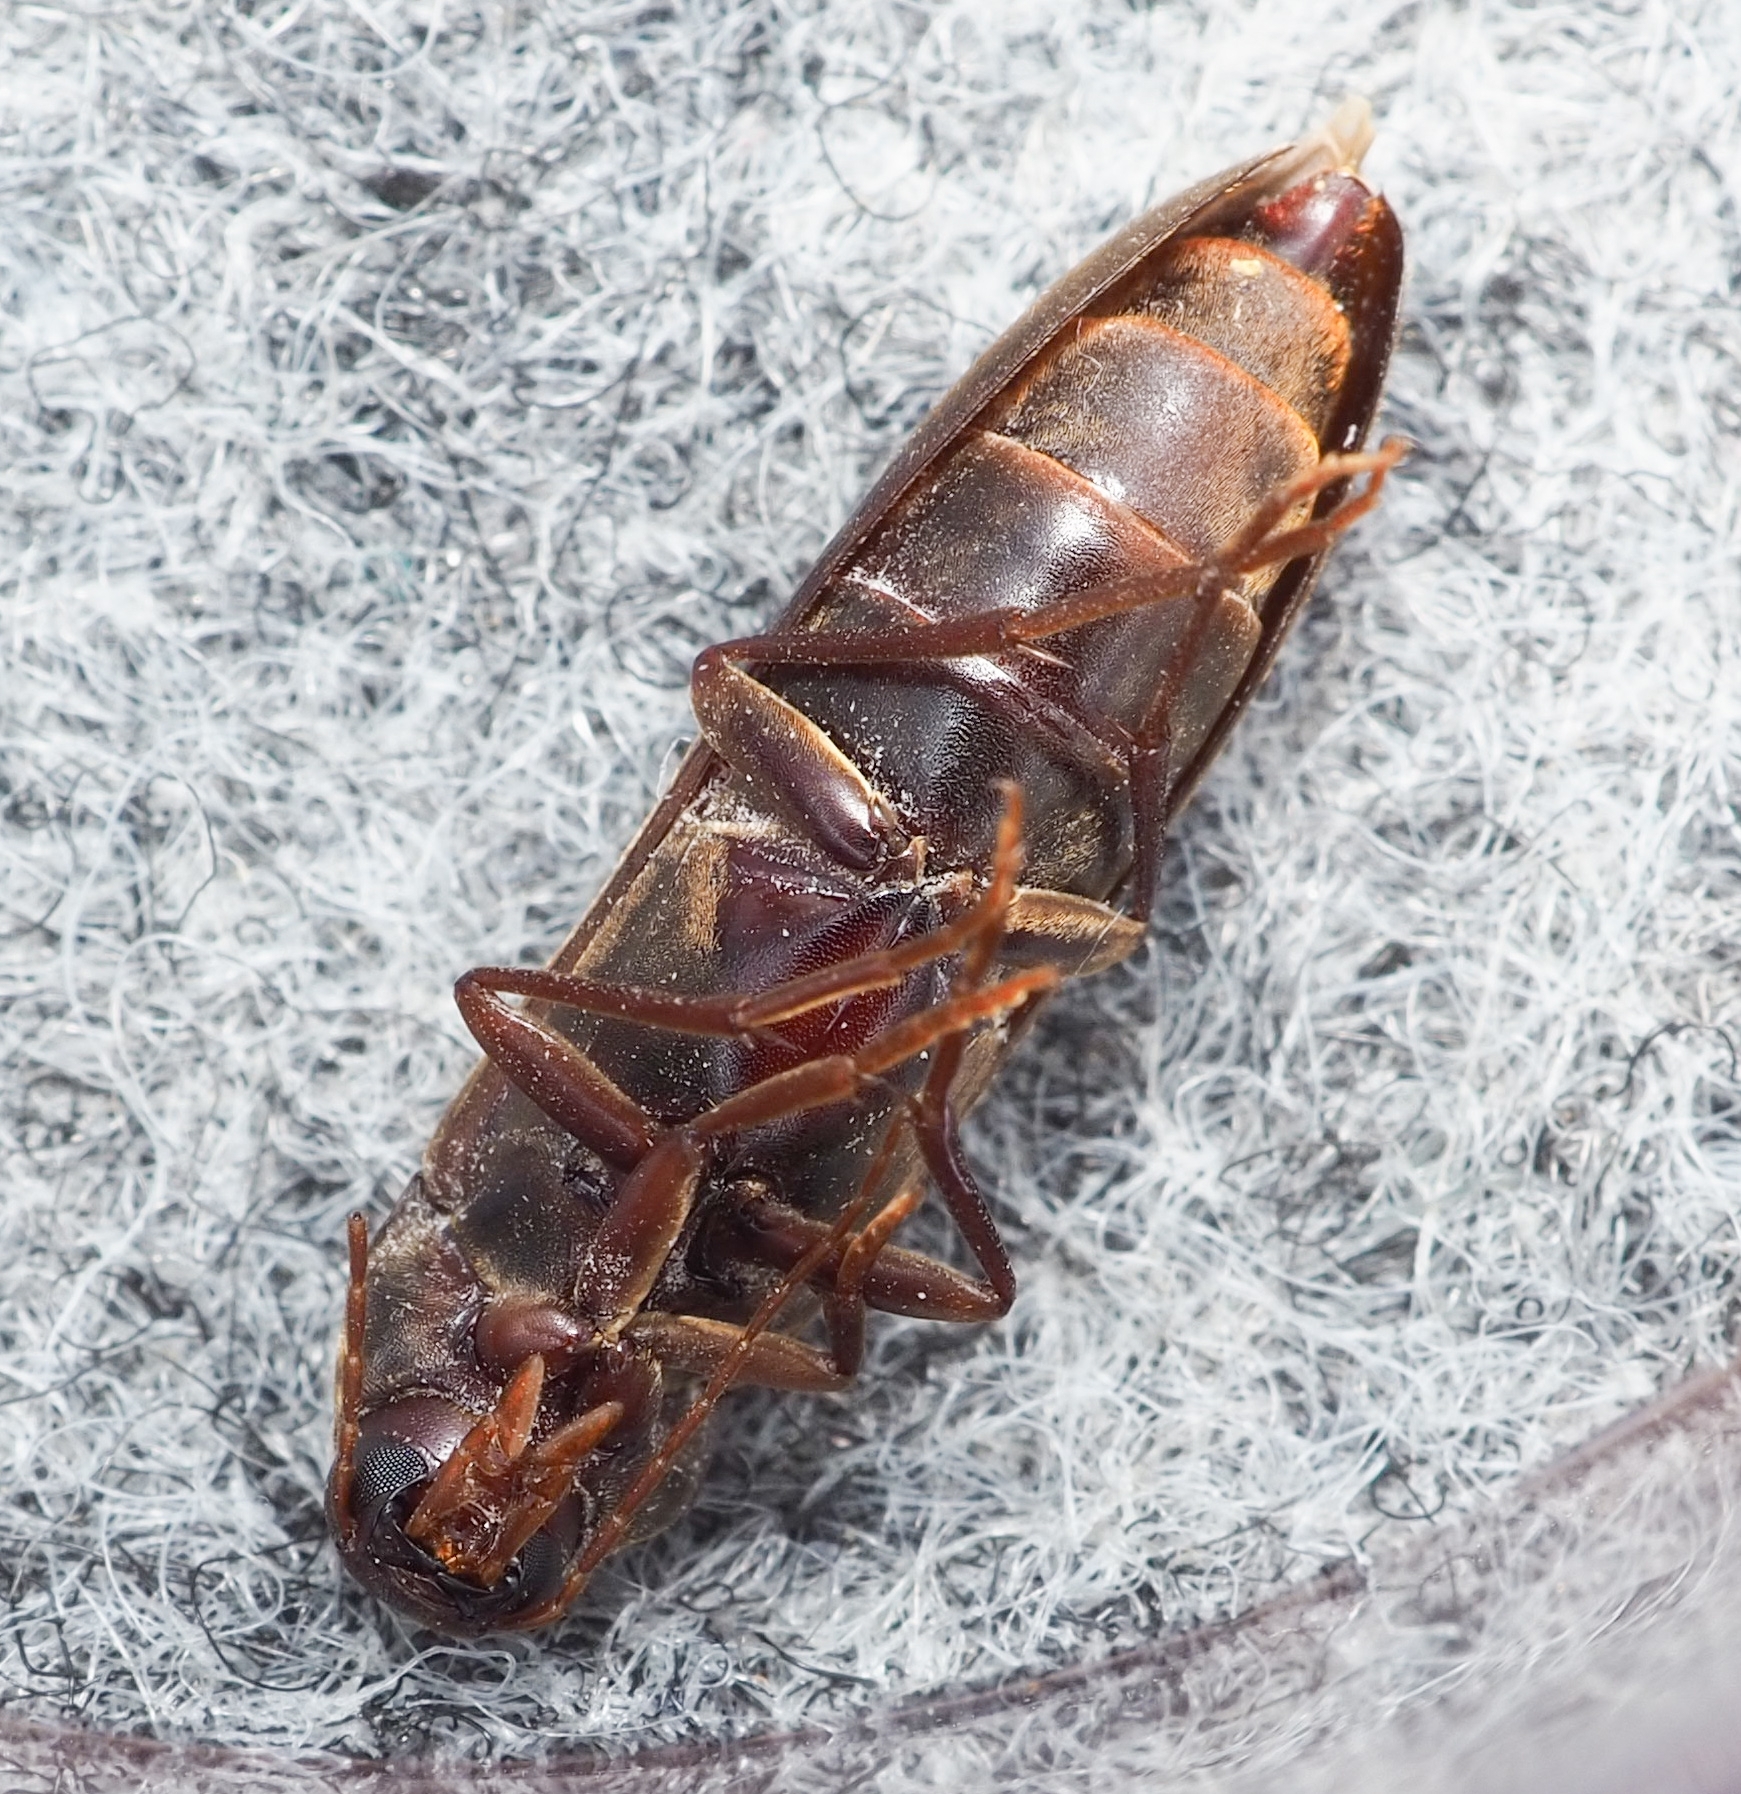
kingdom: Animalia
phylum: Arthropoda
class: Insecta
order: Coleoptera
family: Melandryidae
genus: Serropalpus
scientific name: Serropalpus barbatus
